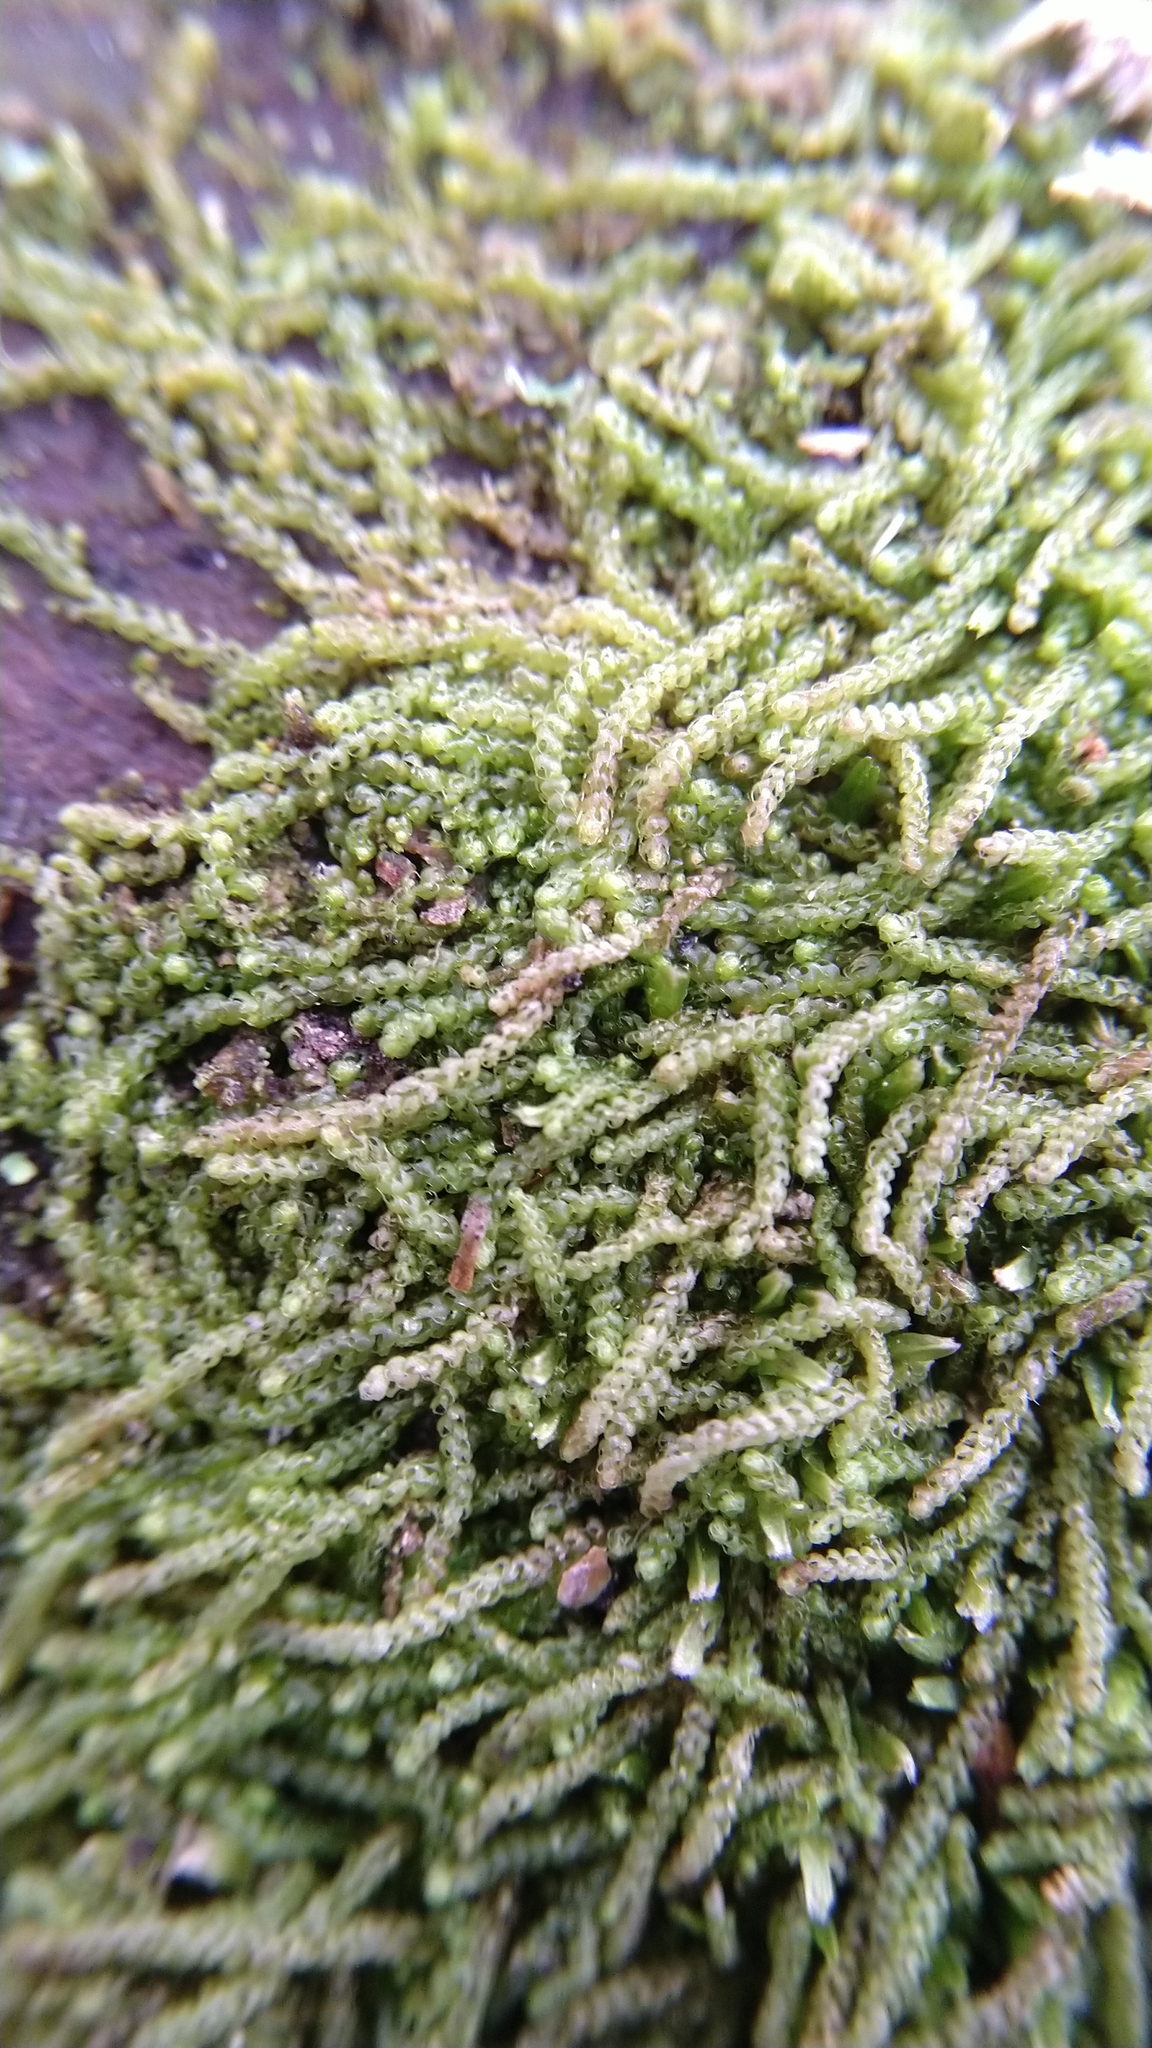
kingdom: Plantae
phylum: Marchantiophyta
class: Jungermanniopsida
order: Jungermanniales
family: Cephaloziaceae
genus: Nowellia
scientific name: Nowellia curvifolia
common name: Wood rustwort
